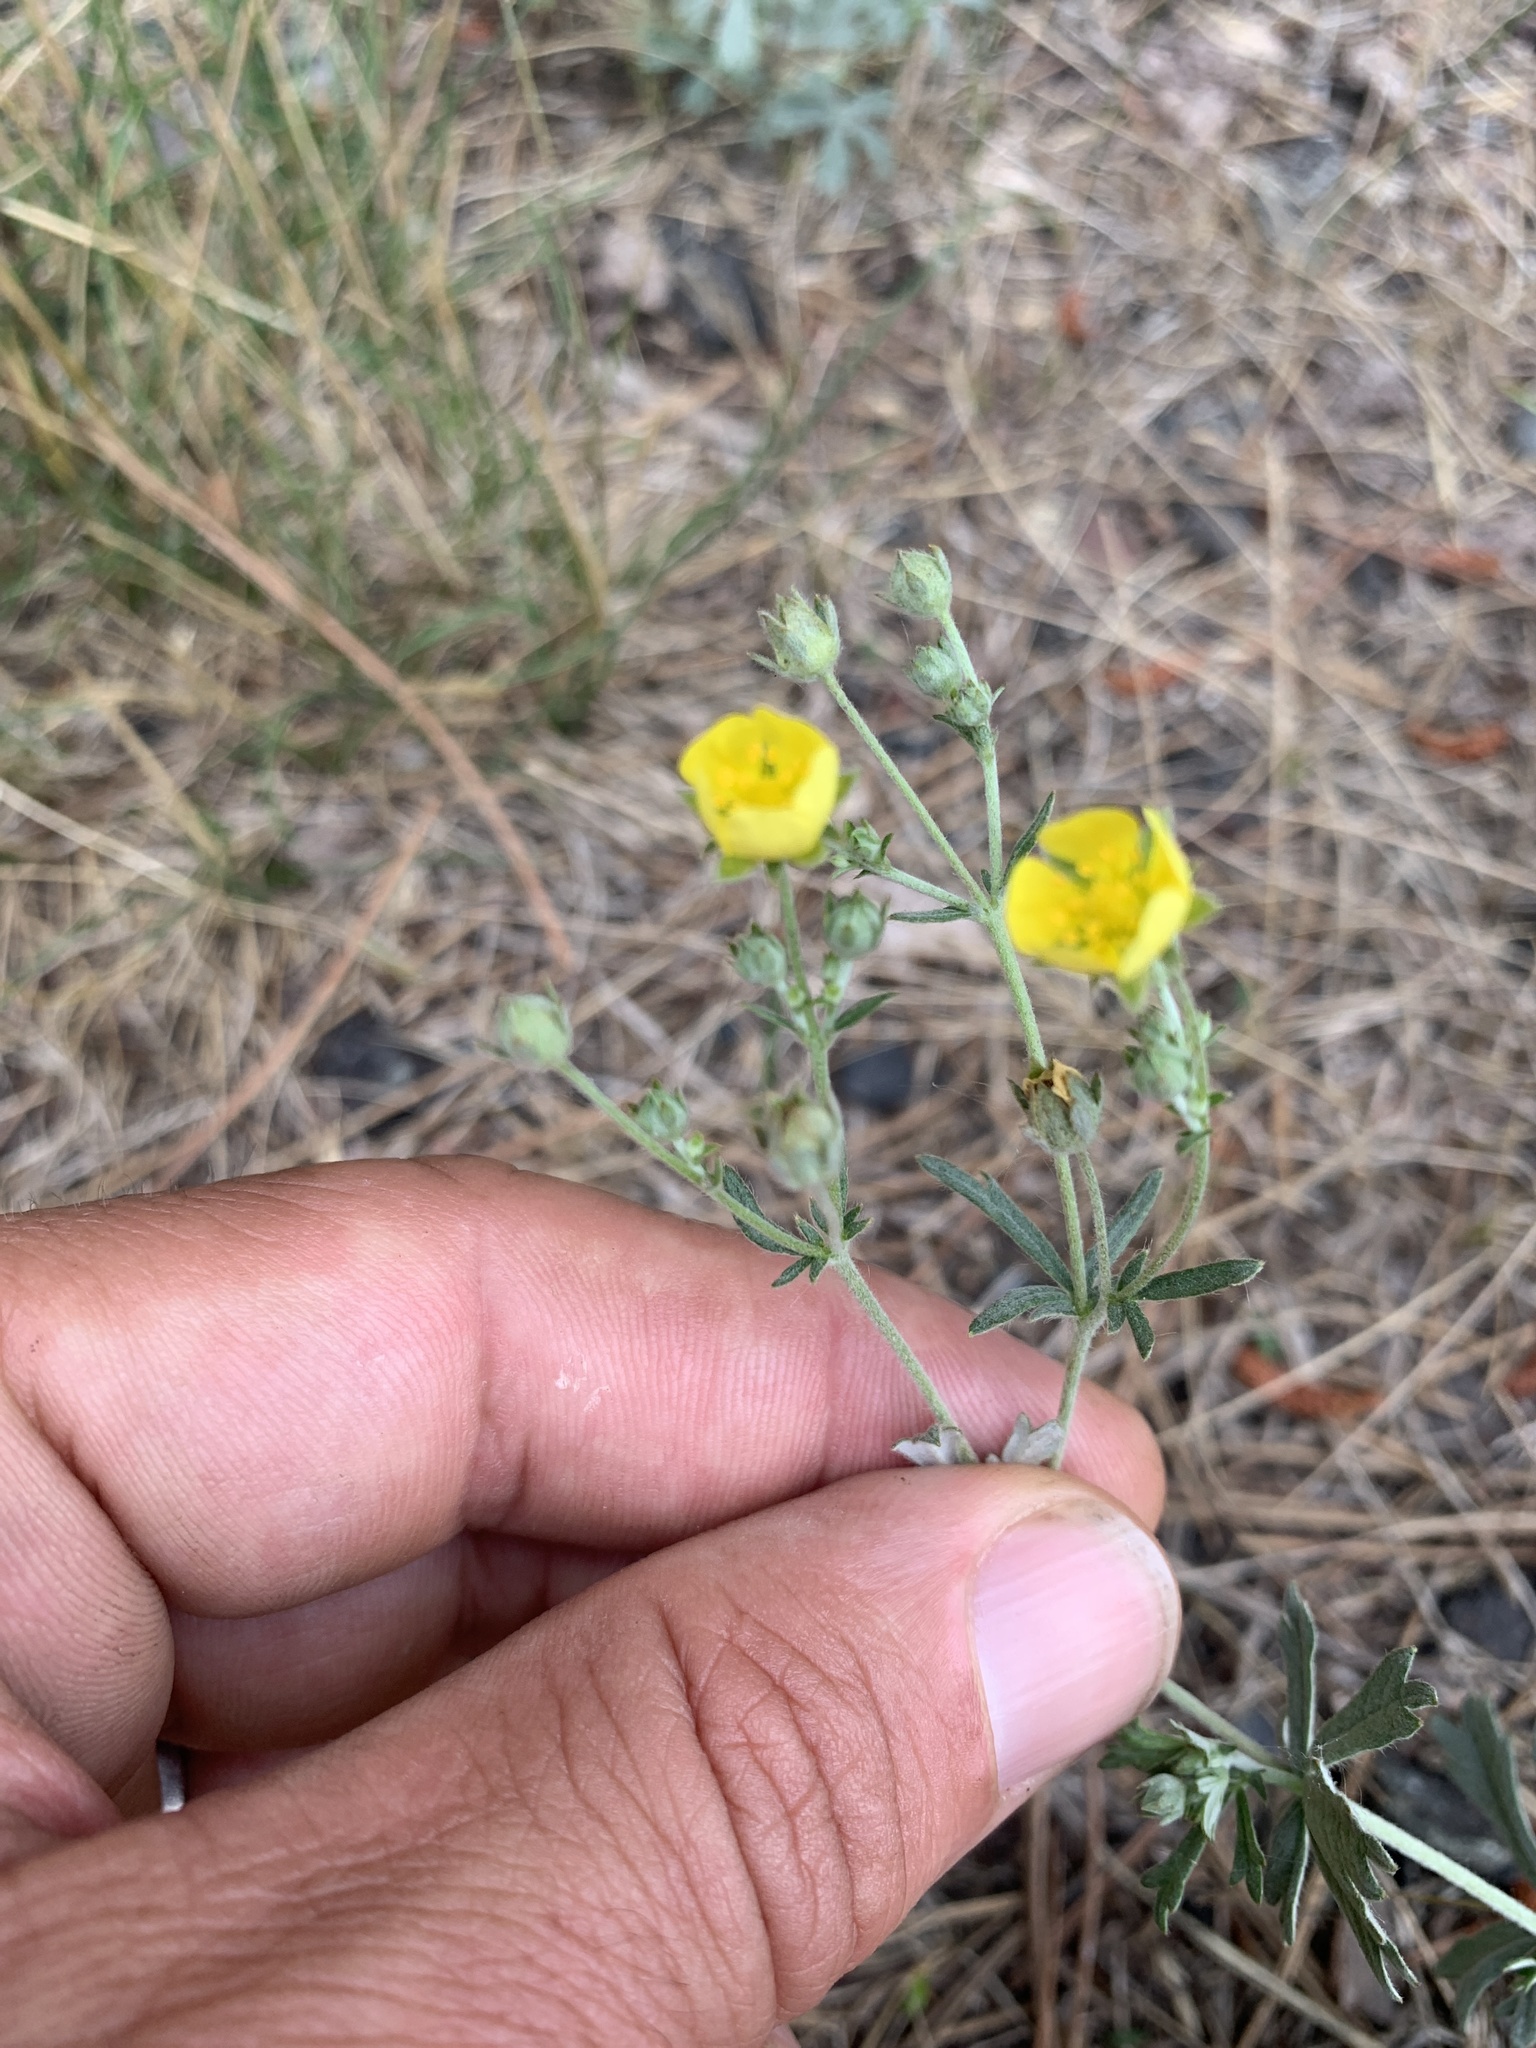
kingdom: Plantae
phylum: Tracheophyta
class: Magnoliopsida
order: Rosales
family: Rosaceae
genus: Potentilla
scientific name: Potentilla argentea
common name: Hoary cinquefoil
